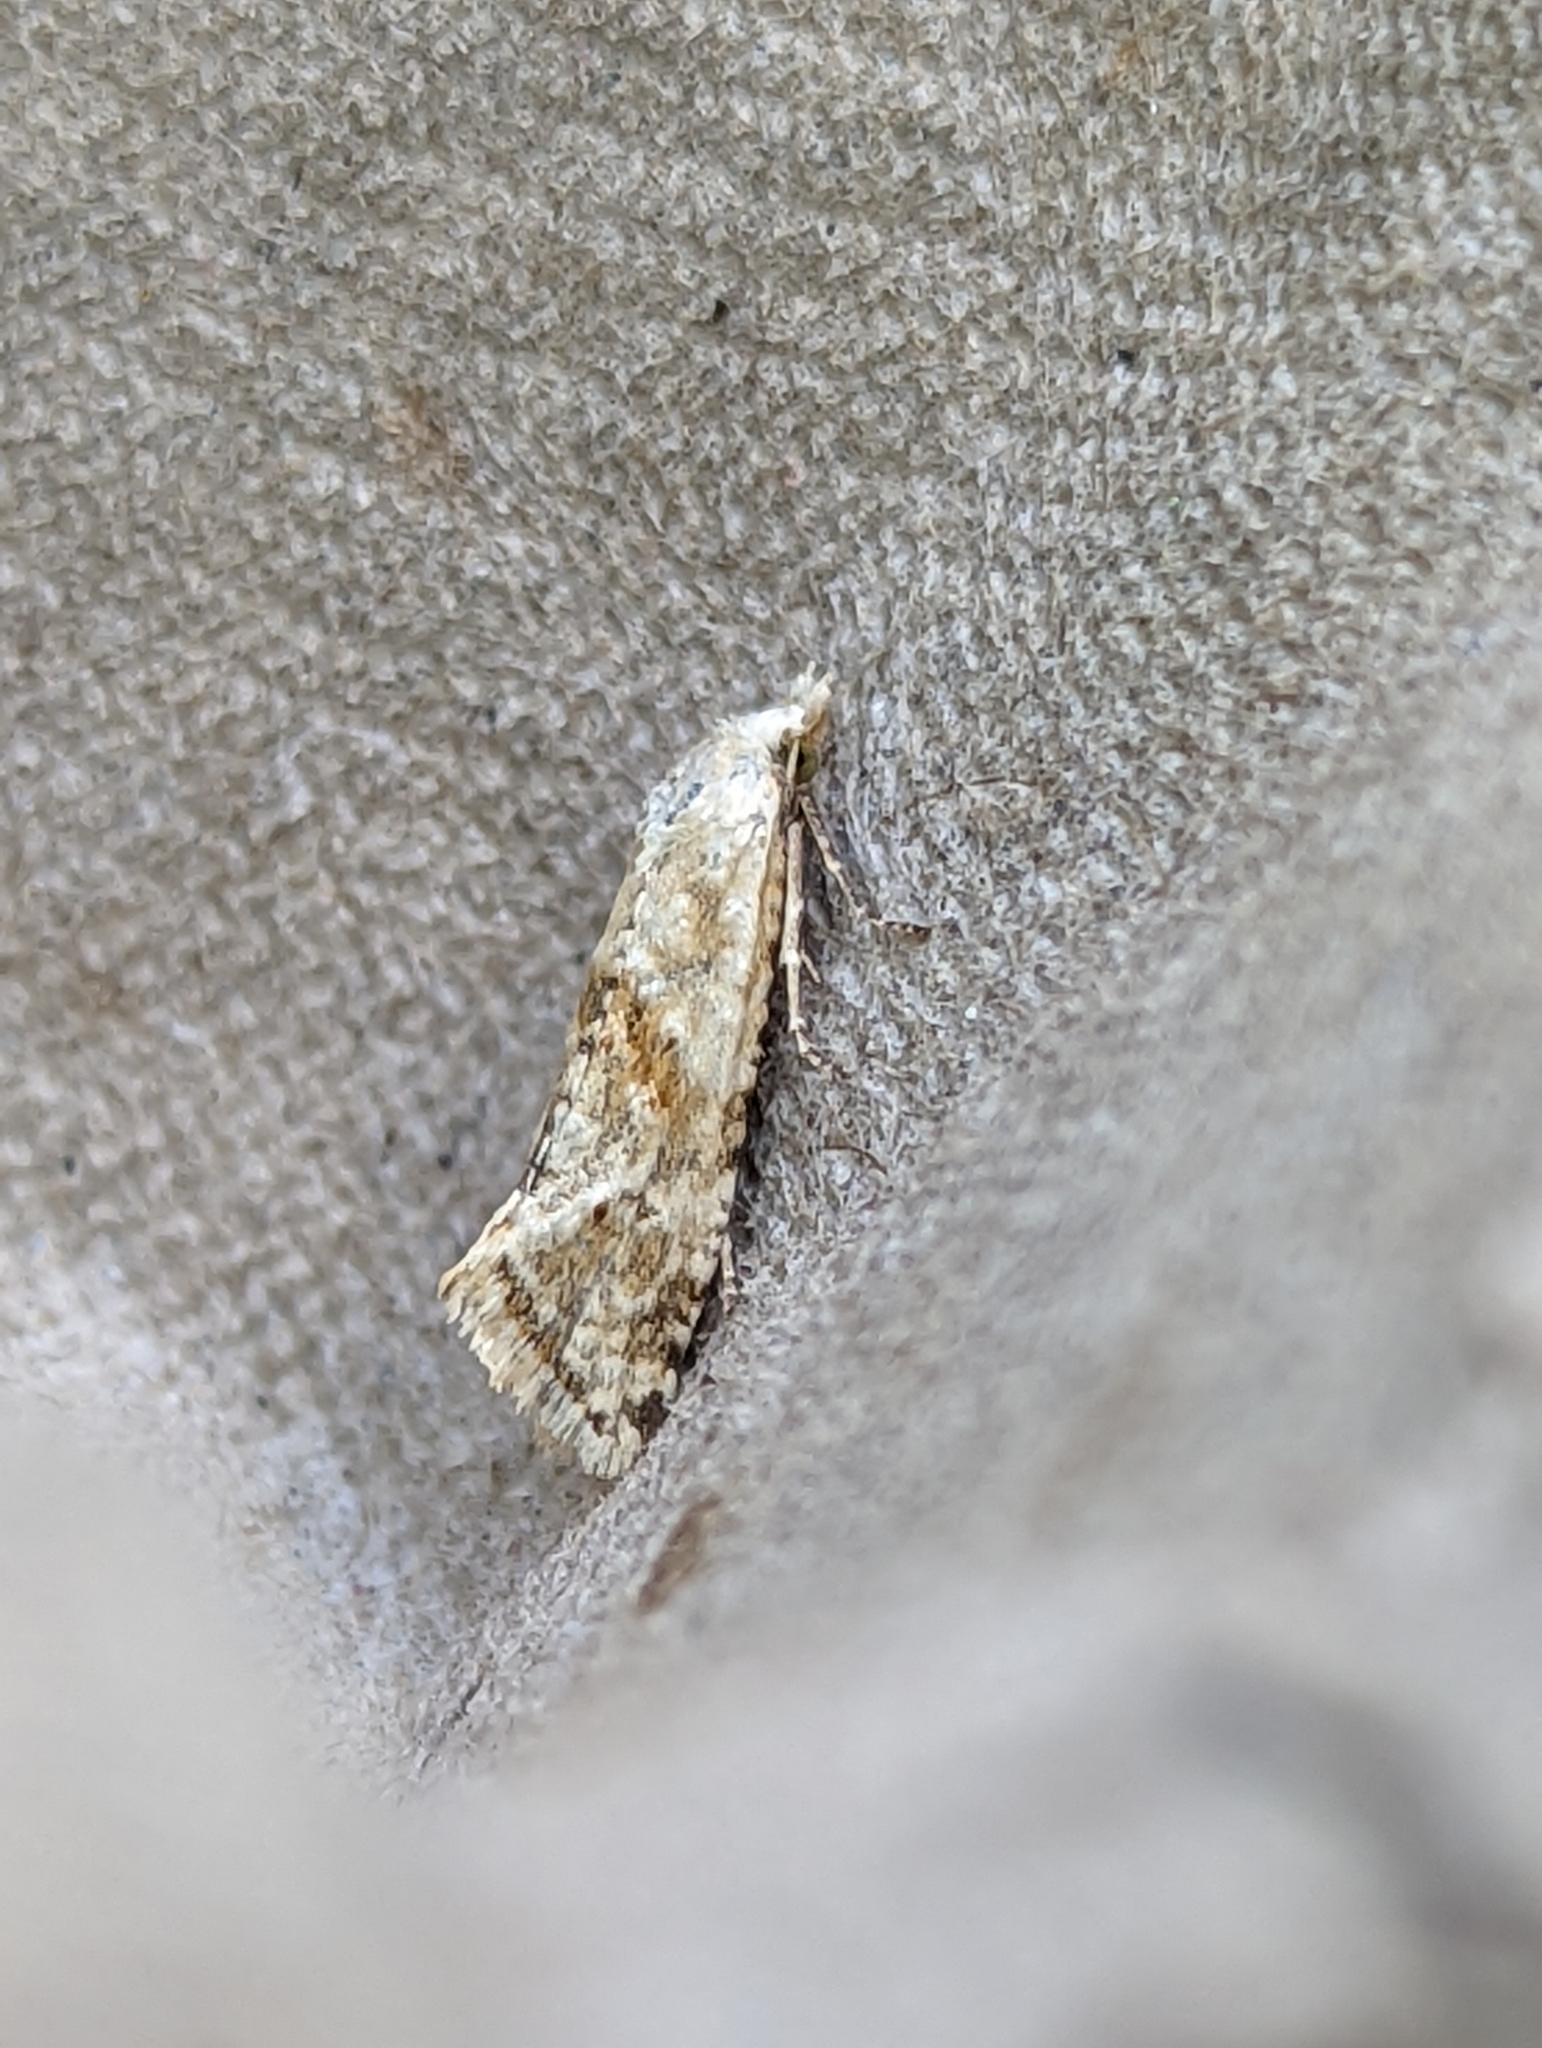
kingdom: Animalia
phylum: Arthropoda
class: Insecta
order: Lepidoptera
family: Tortricidae
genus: Cochylimorpha
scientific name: Cochylimorpha straminea
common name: Straw conch
